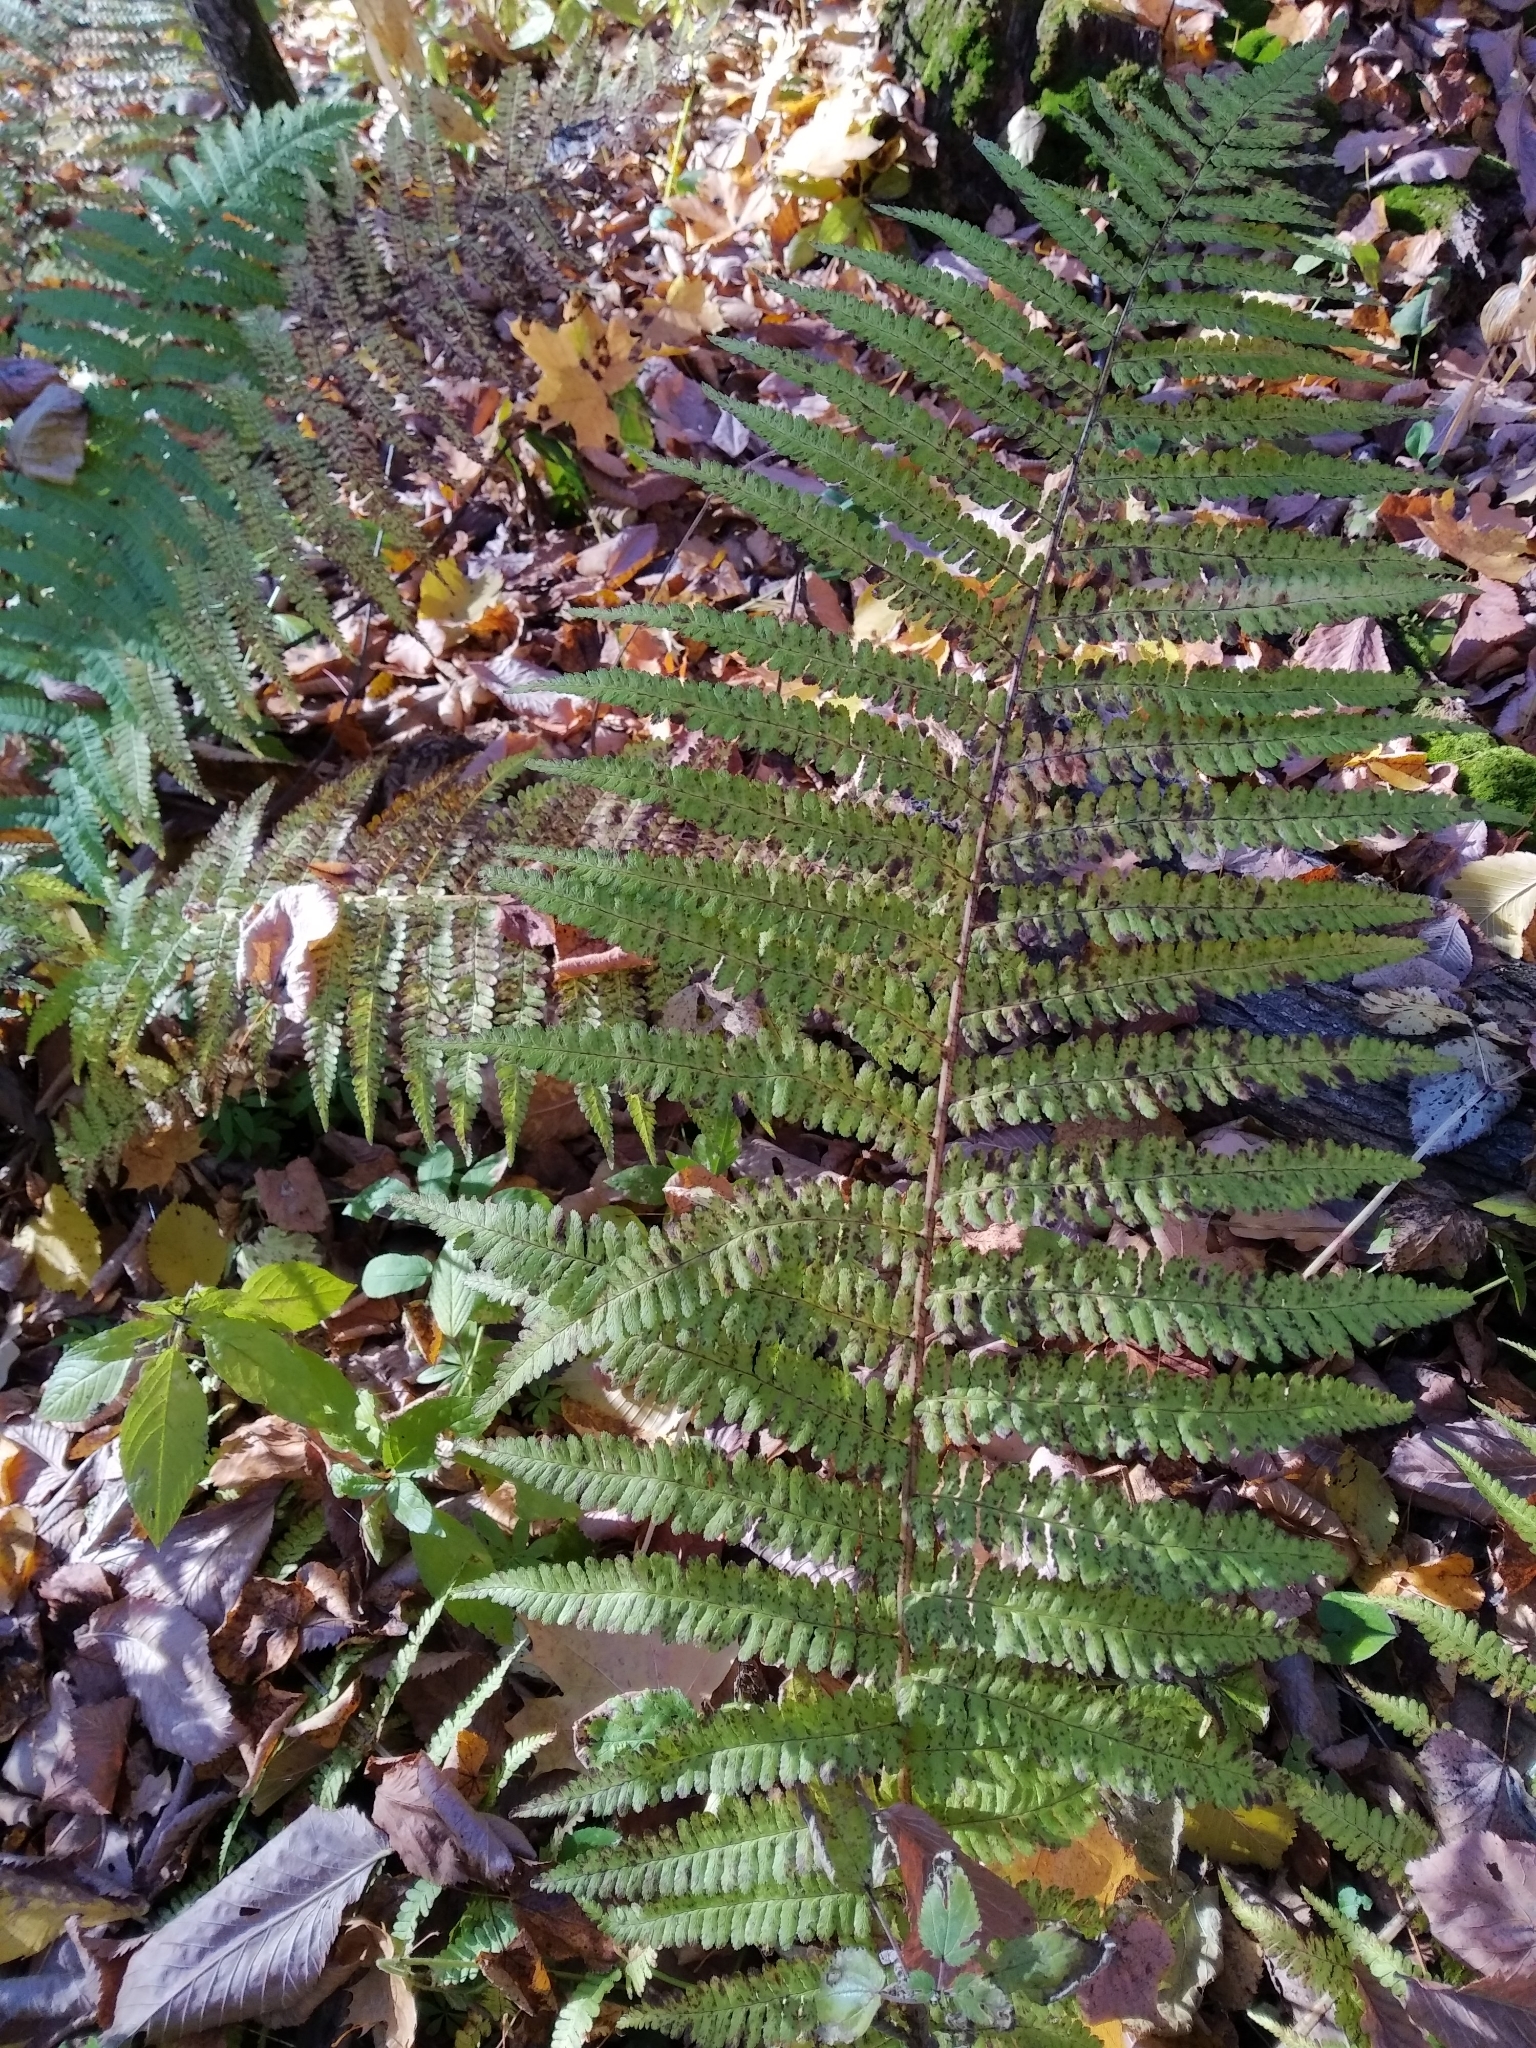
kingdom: Plantae
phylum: Tracheophyta
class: Polypodiopsida
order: Polypodiales
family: Dryopteridaceae
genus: Dryopteris
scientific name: Dryopteris filix-mas
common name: Male fern
